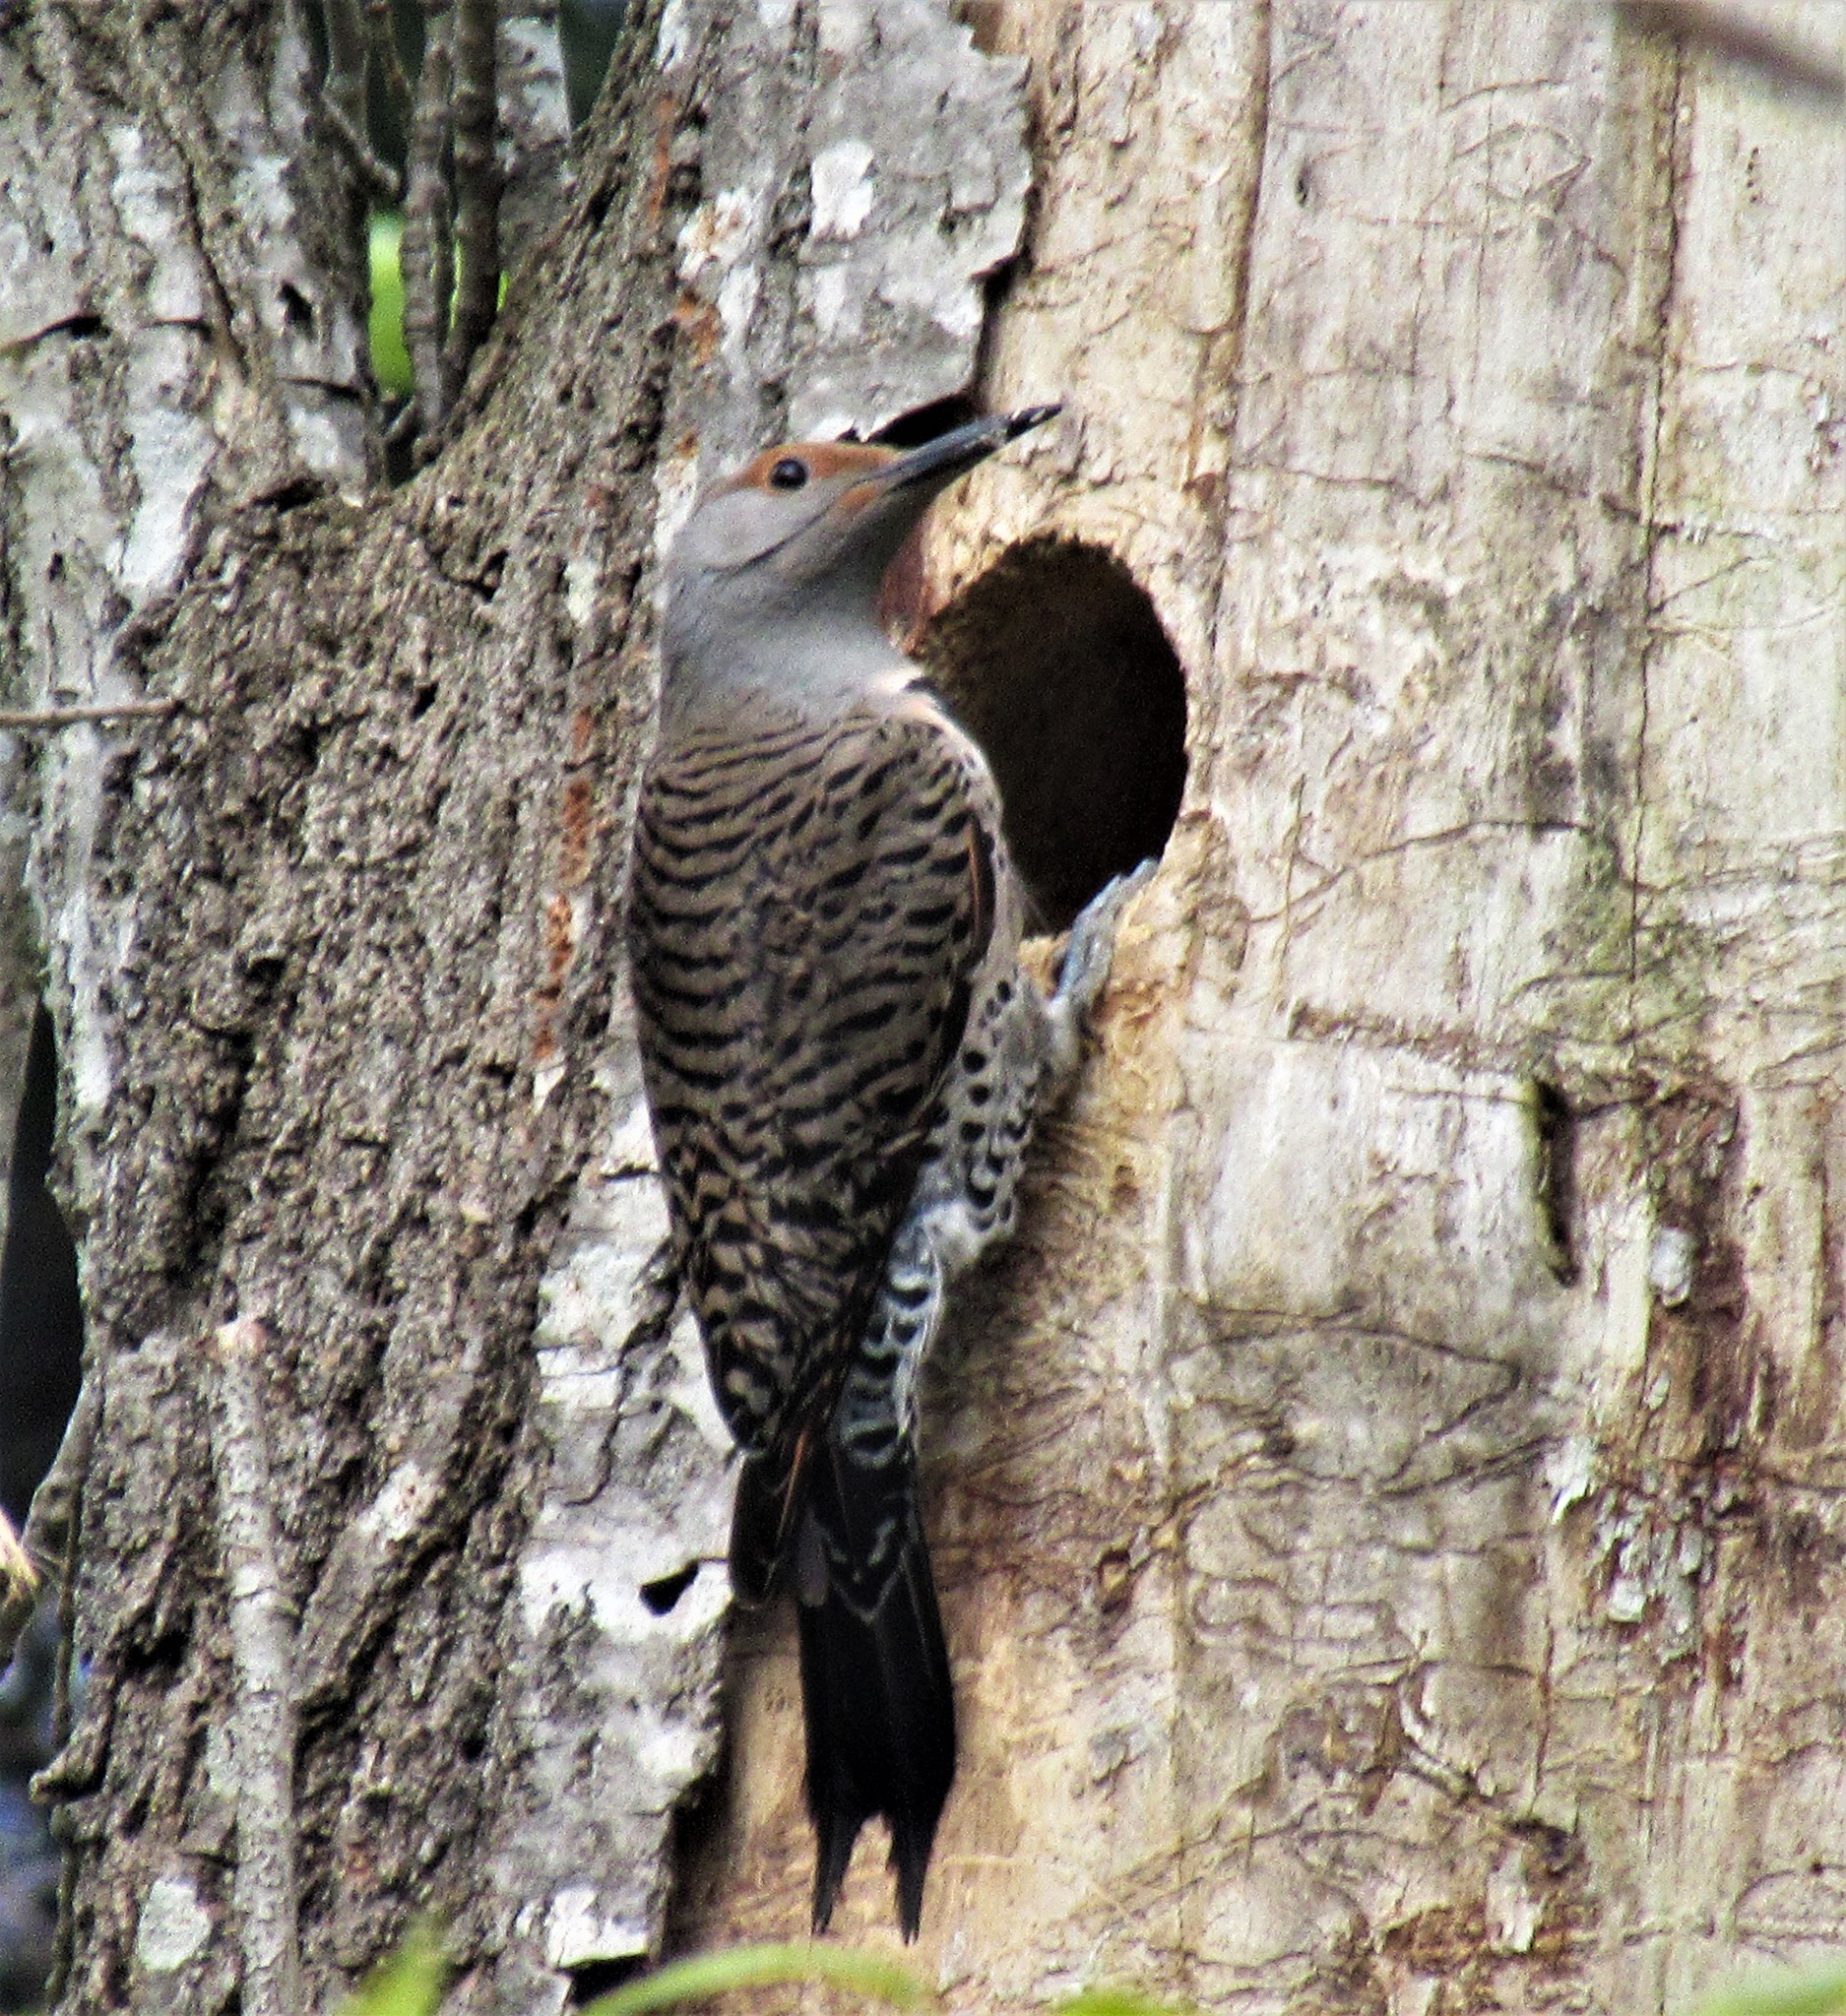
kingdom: Animalia
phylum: Chordata
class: Aves
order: Piciformes
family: Picidae
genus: Colaptes
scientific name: Colaptes auratus
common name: Northern flicker
